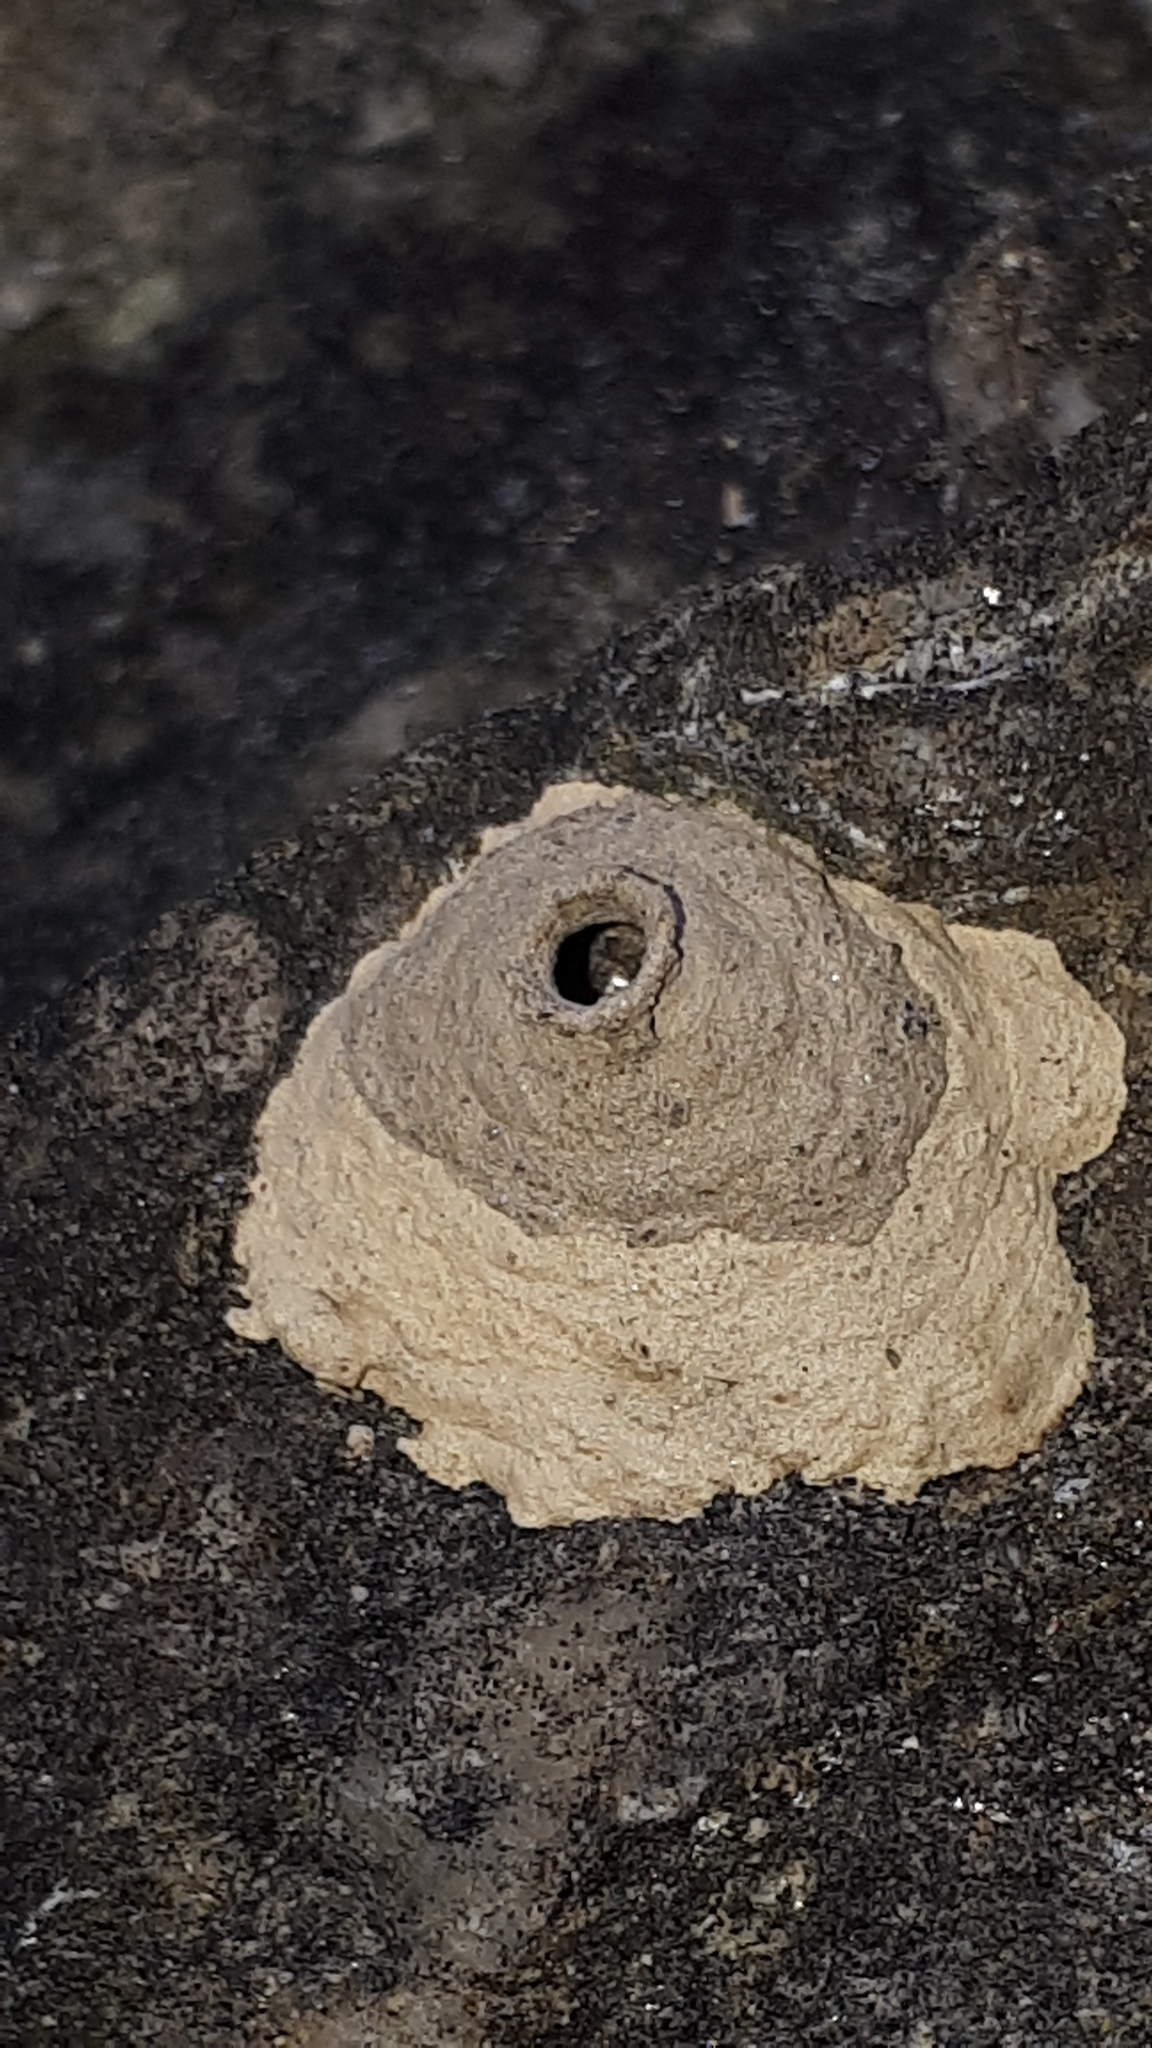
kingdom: Animalia
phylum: Arthropoda
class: Insecta
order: Hymenoptera
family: Vespidae
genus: Eumenes
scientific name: Eumenes
